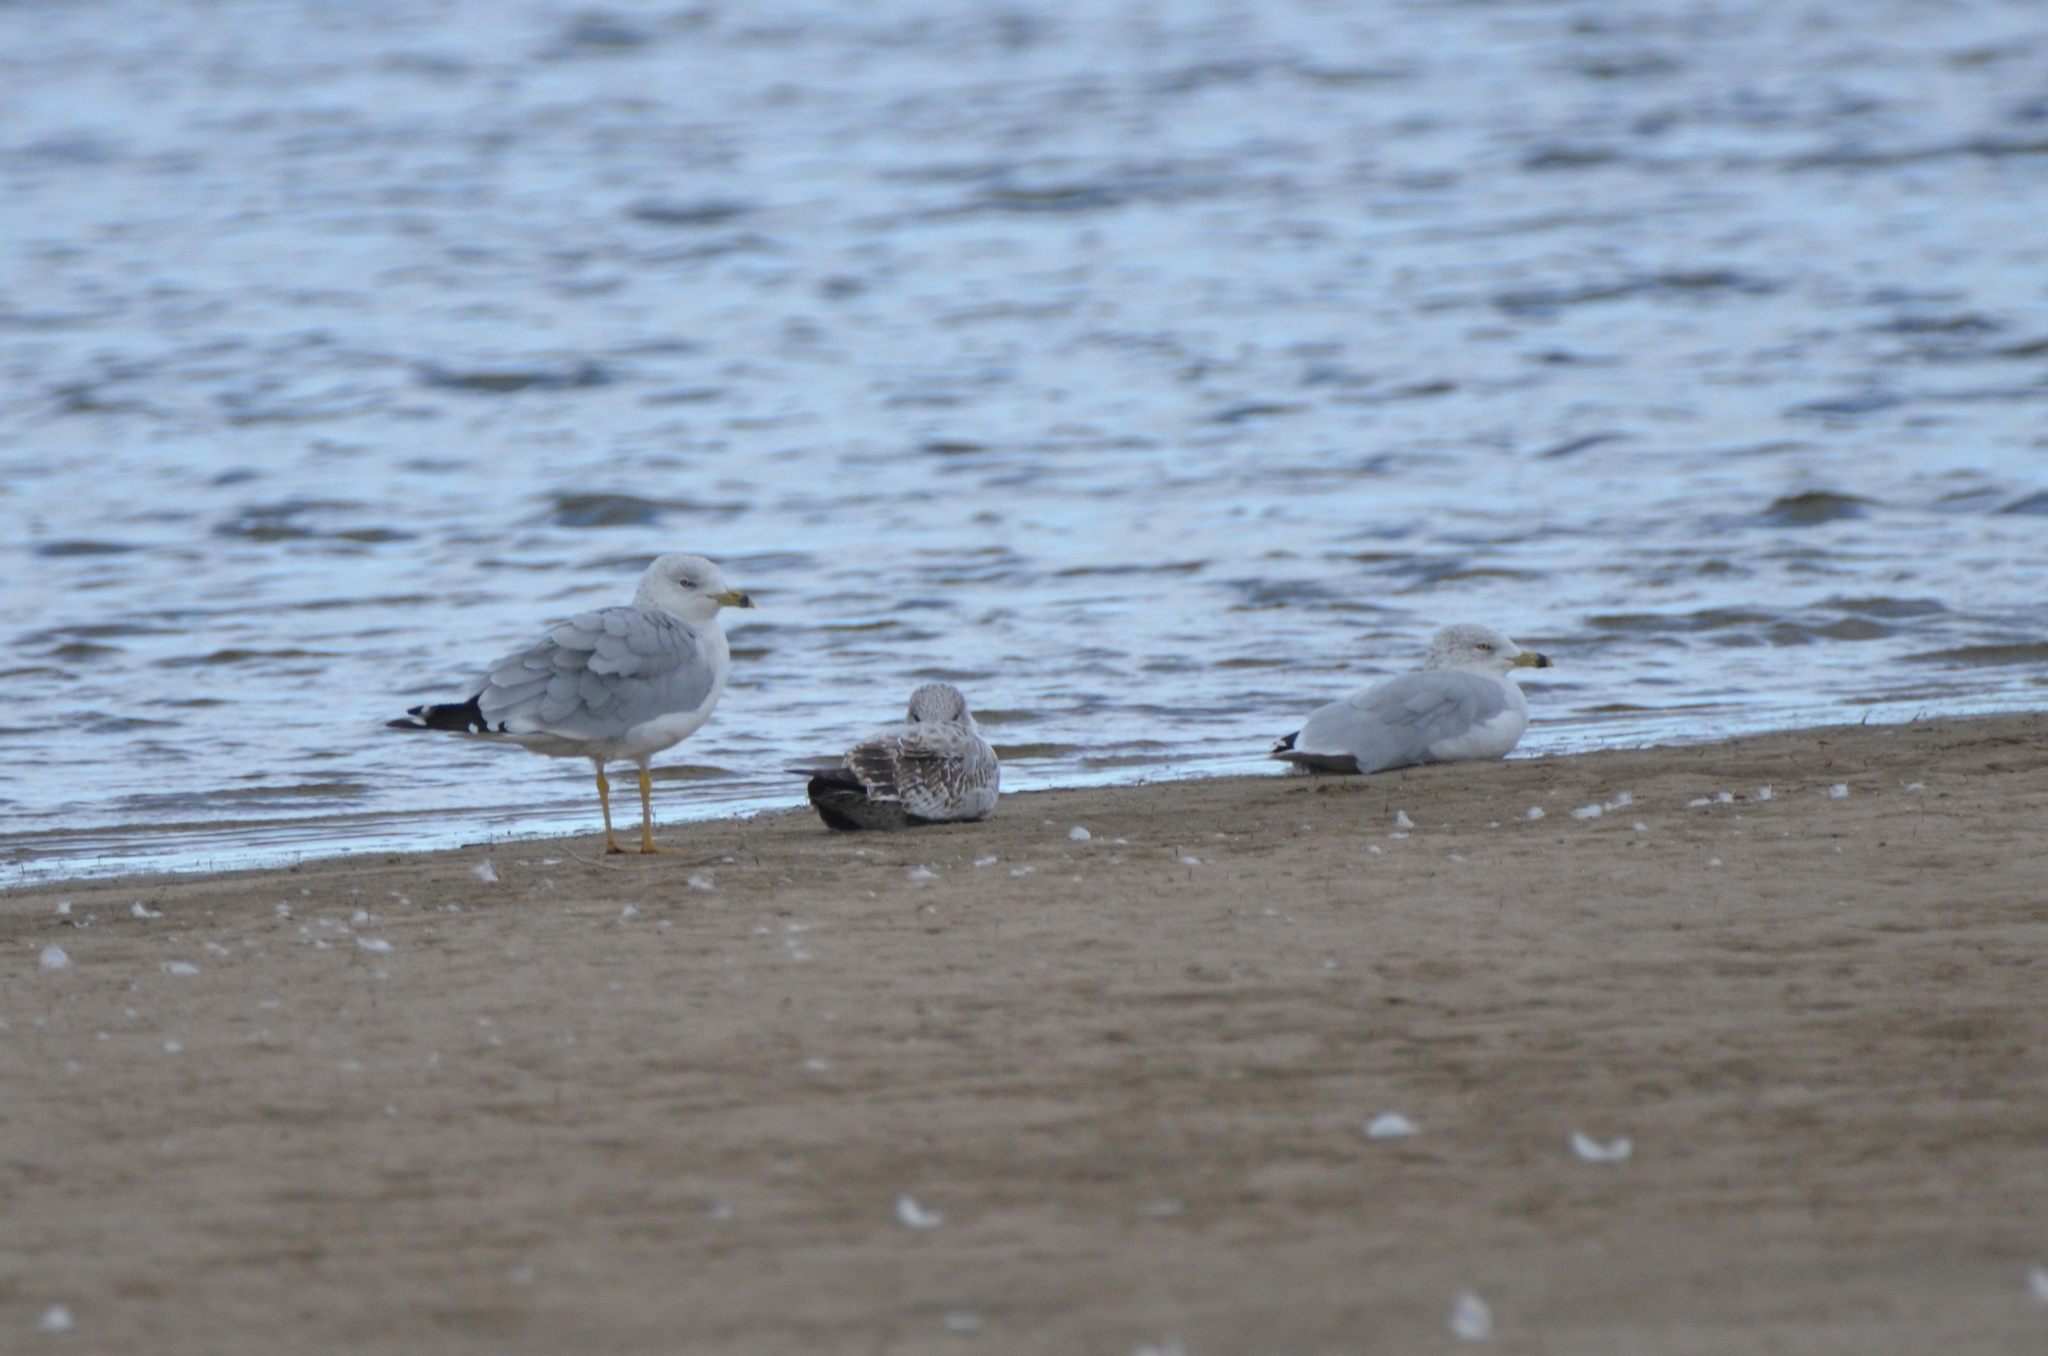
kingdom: Animalia
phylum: Chordata
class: Aves
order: Charadriiformes
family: Laridae
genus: Larus
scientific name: Larus delawarensis
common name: Ring-billed gull
